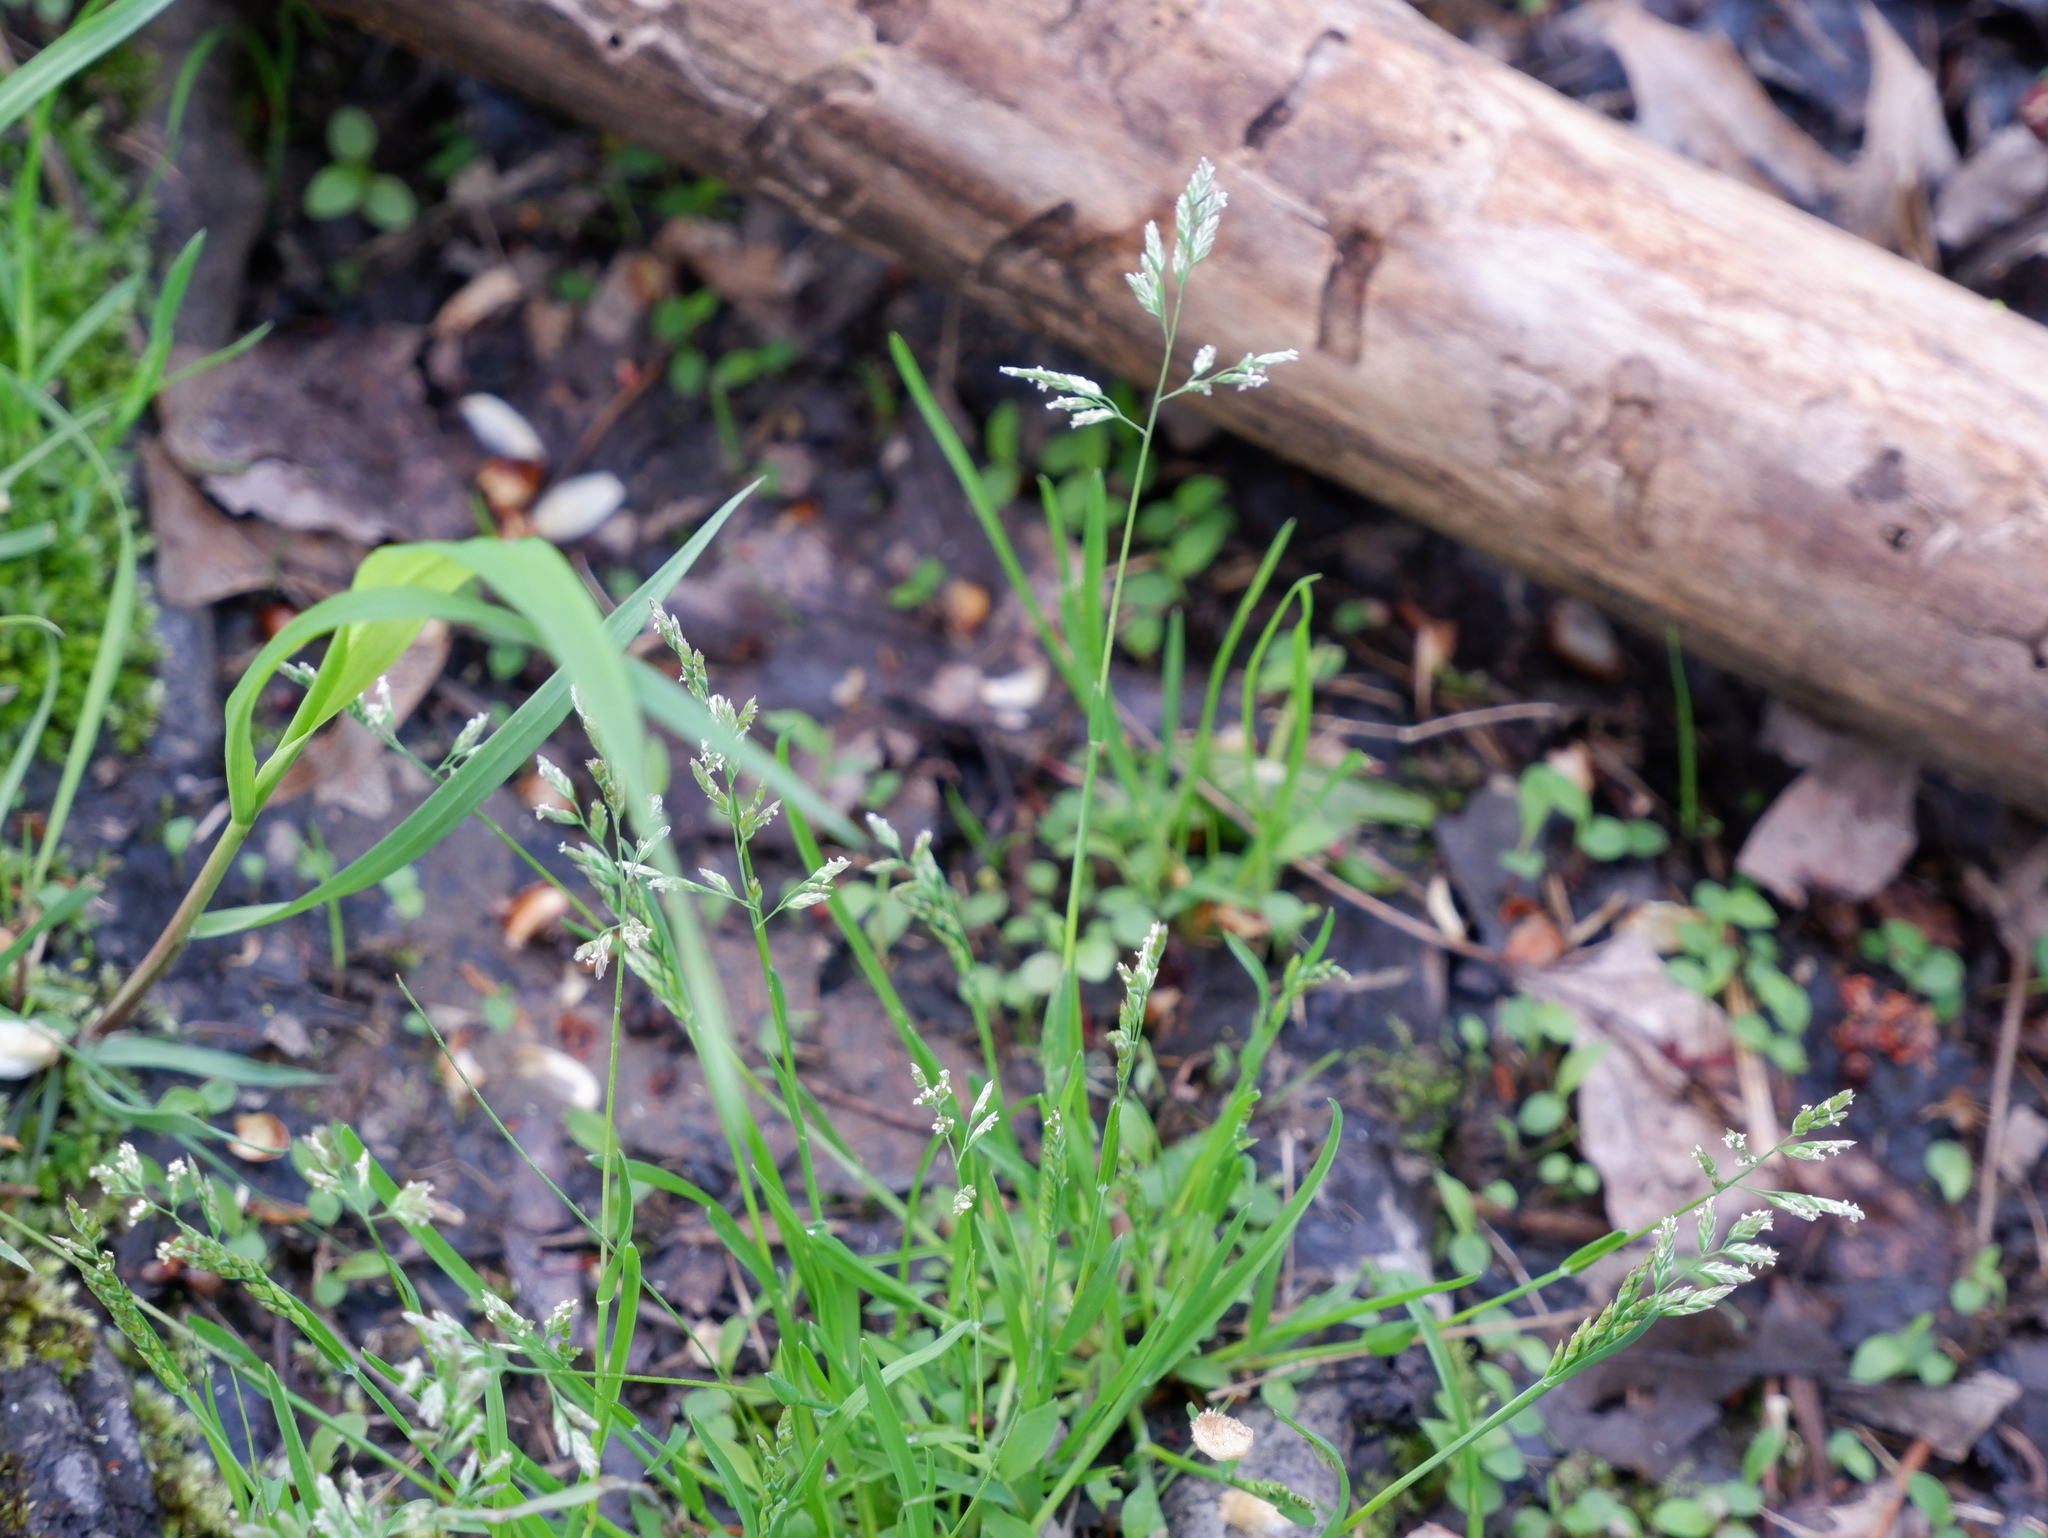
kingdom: Plantae
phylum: Tracheophyta
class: Liliopsida
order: Poales
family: Poaceae
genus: Poa
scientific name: Poa annua
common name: Annual bluegrass
